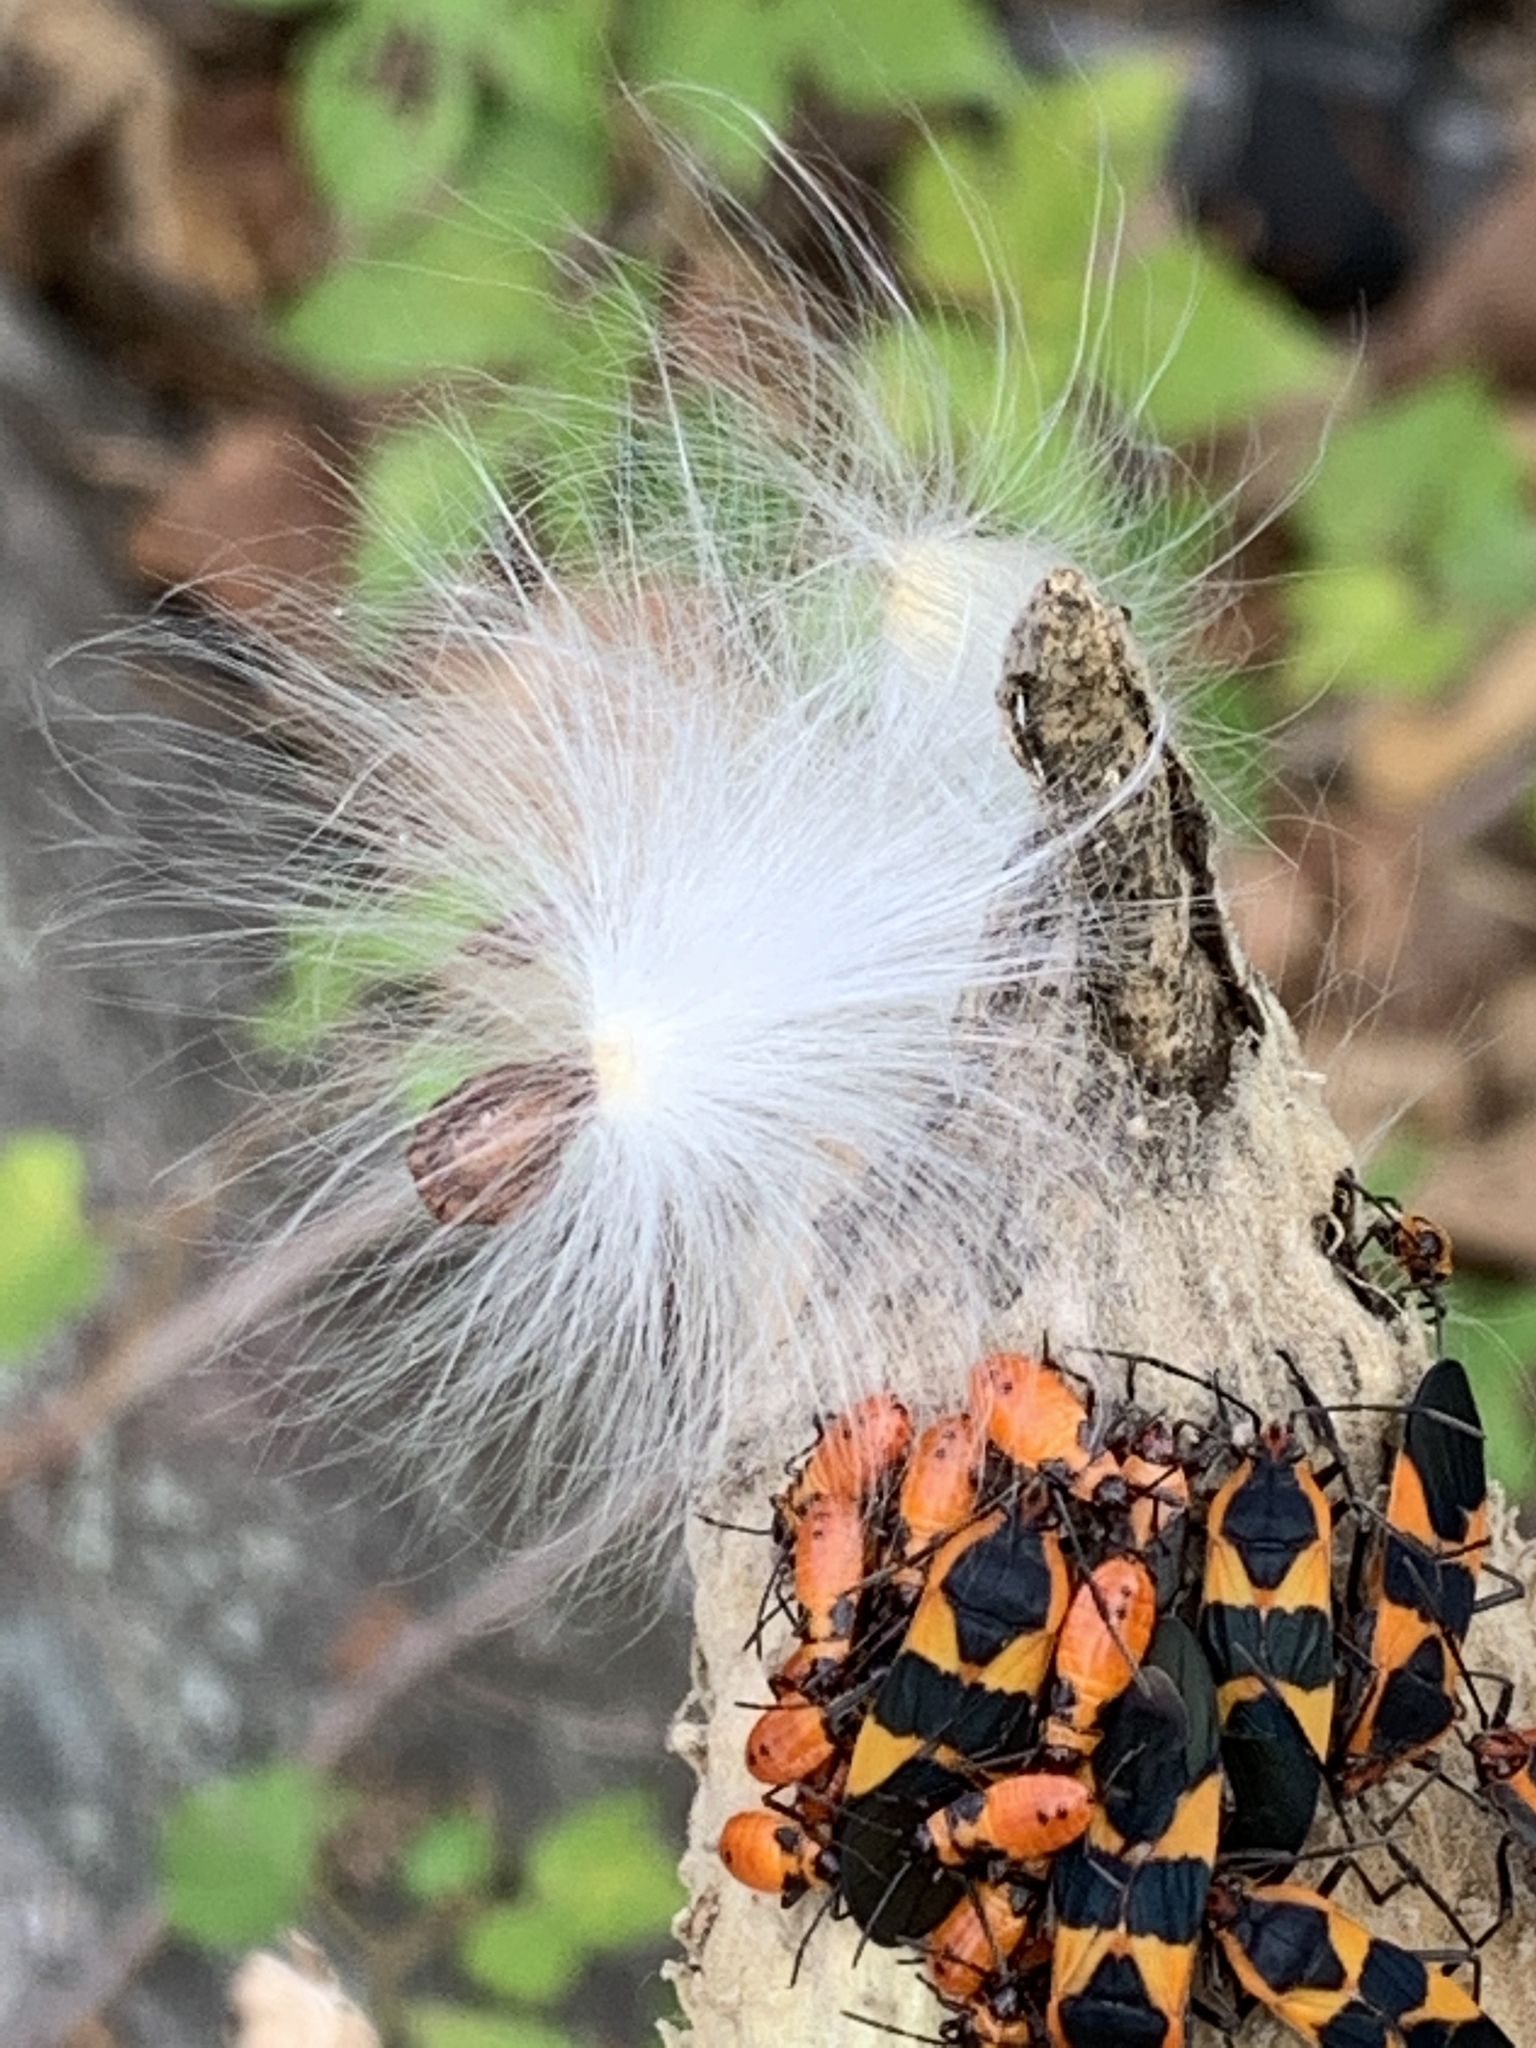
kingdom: Animalia
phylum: Arthropoda
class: Insecta
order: Hemiptera
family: Lygaeidae
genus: Oncopeltus
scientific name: Oncopeltus fasciatus
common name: Large milkweed bug
